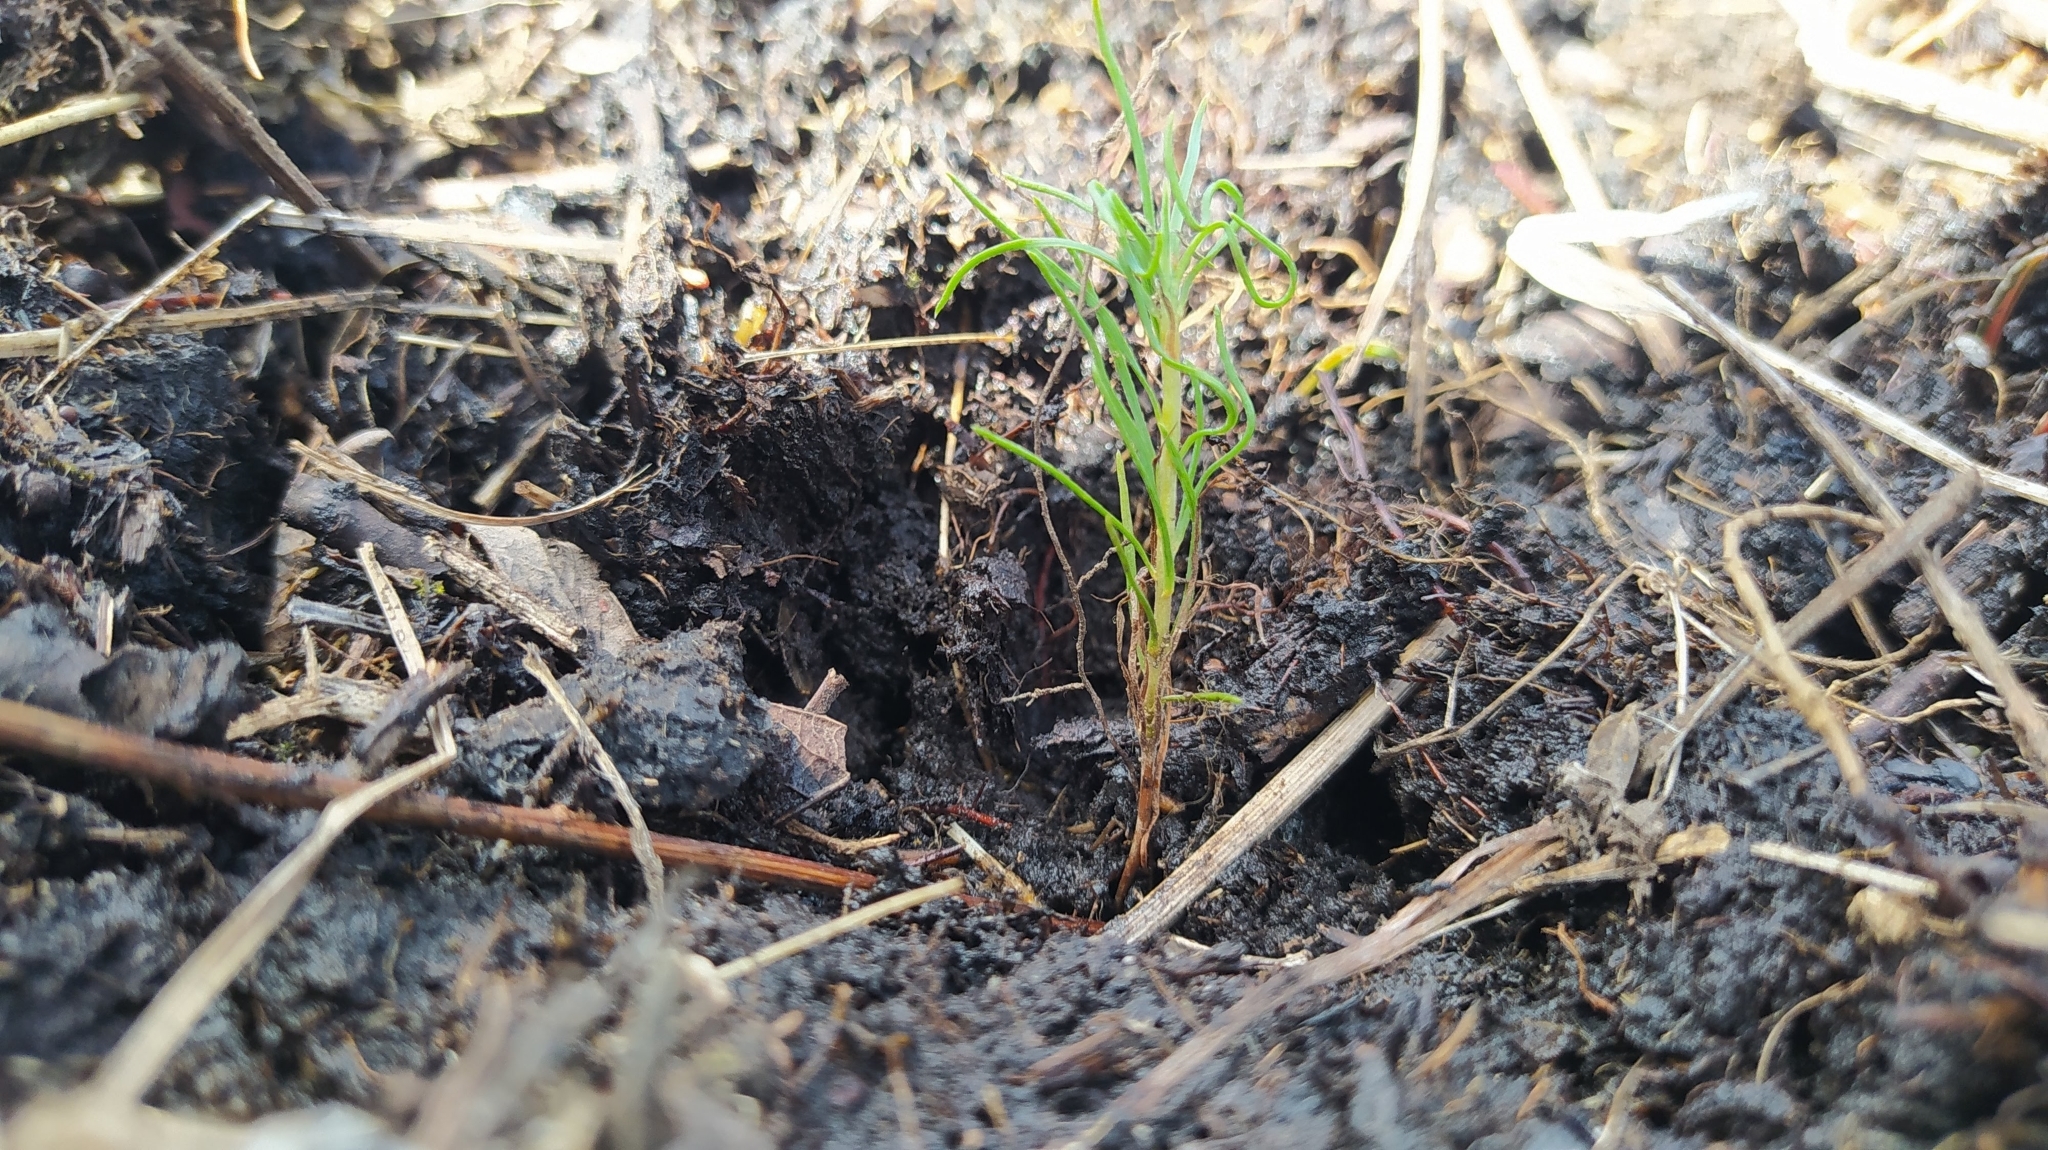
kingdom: Plantae
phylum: Tracheophyta
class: Pinopsida
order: Pinales
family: Pinaceae
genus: Pinus
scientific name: Pinus sylvestris
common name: Scots pine
